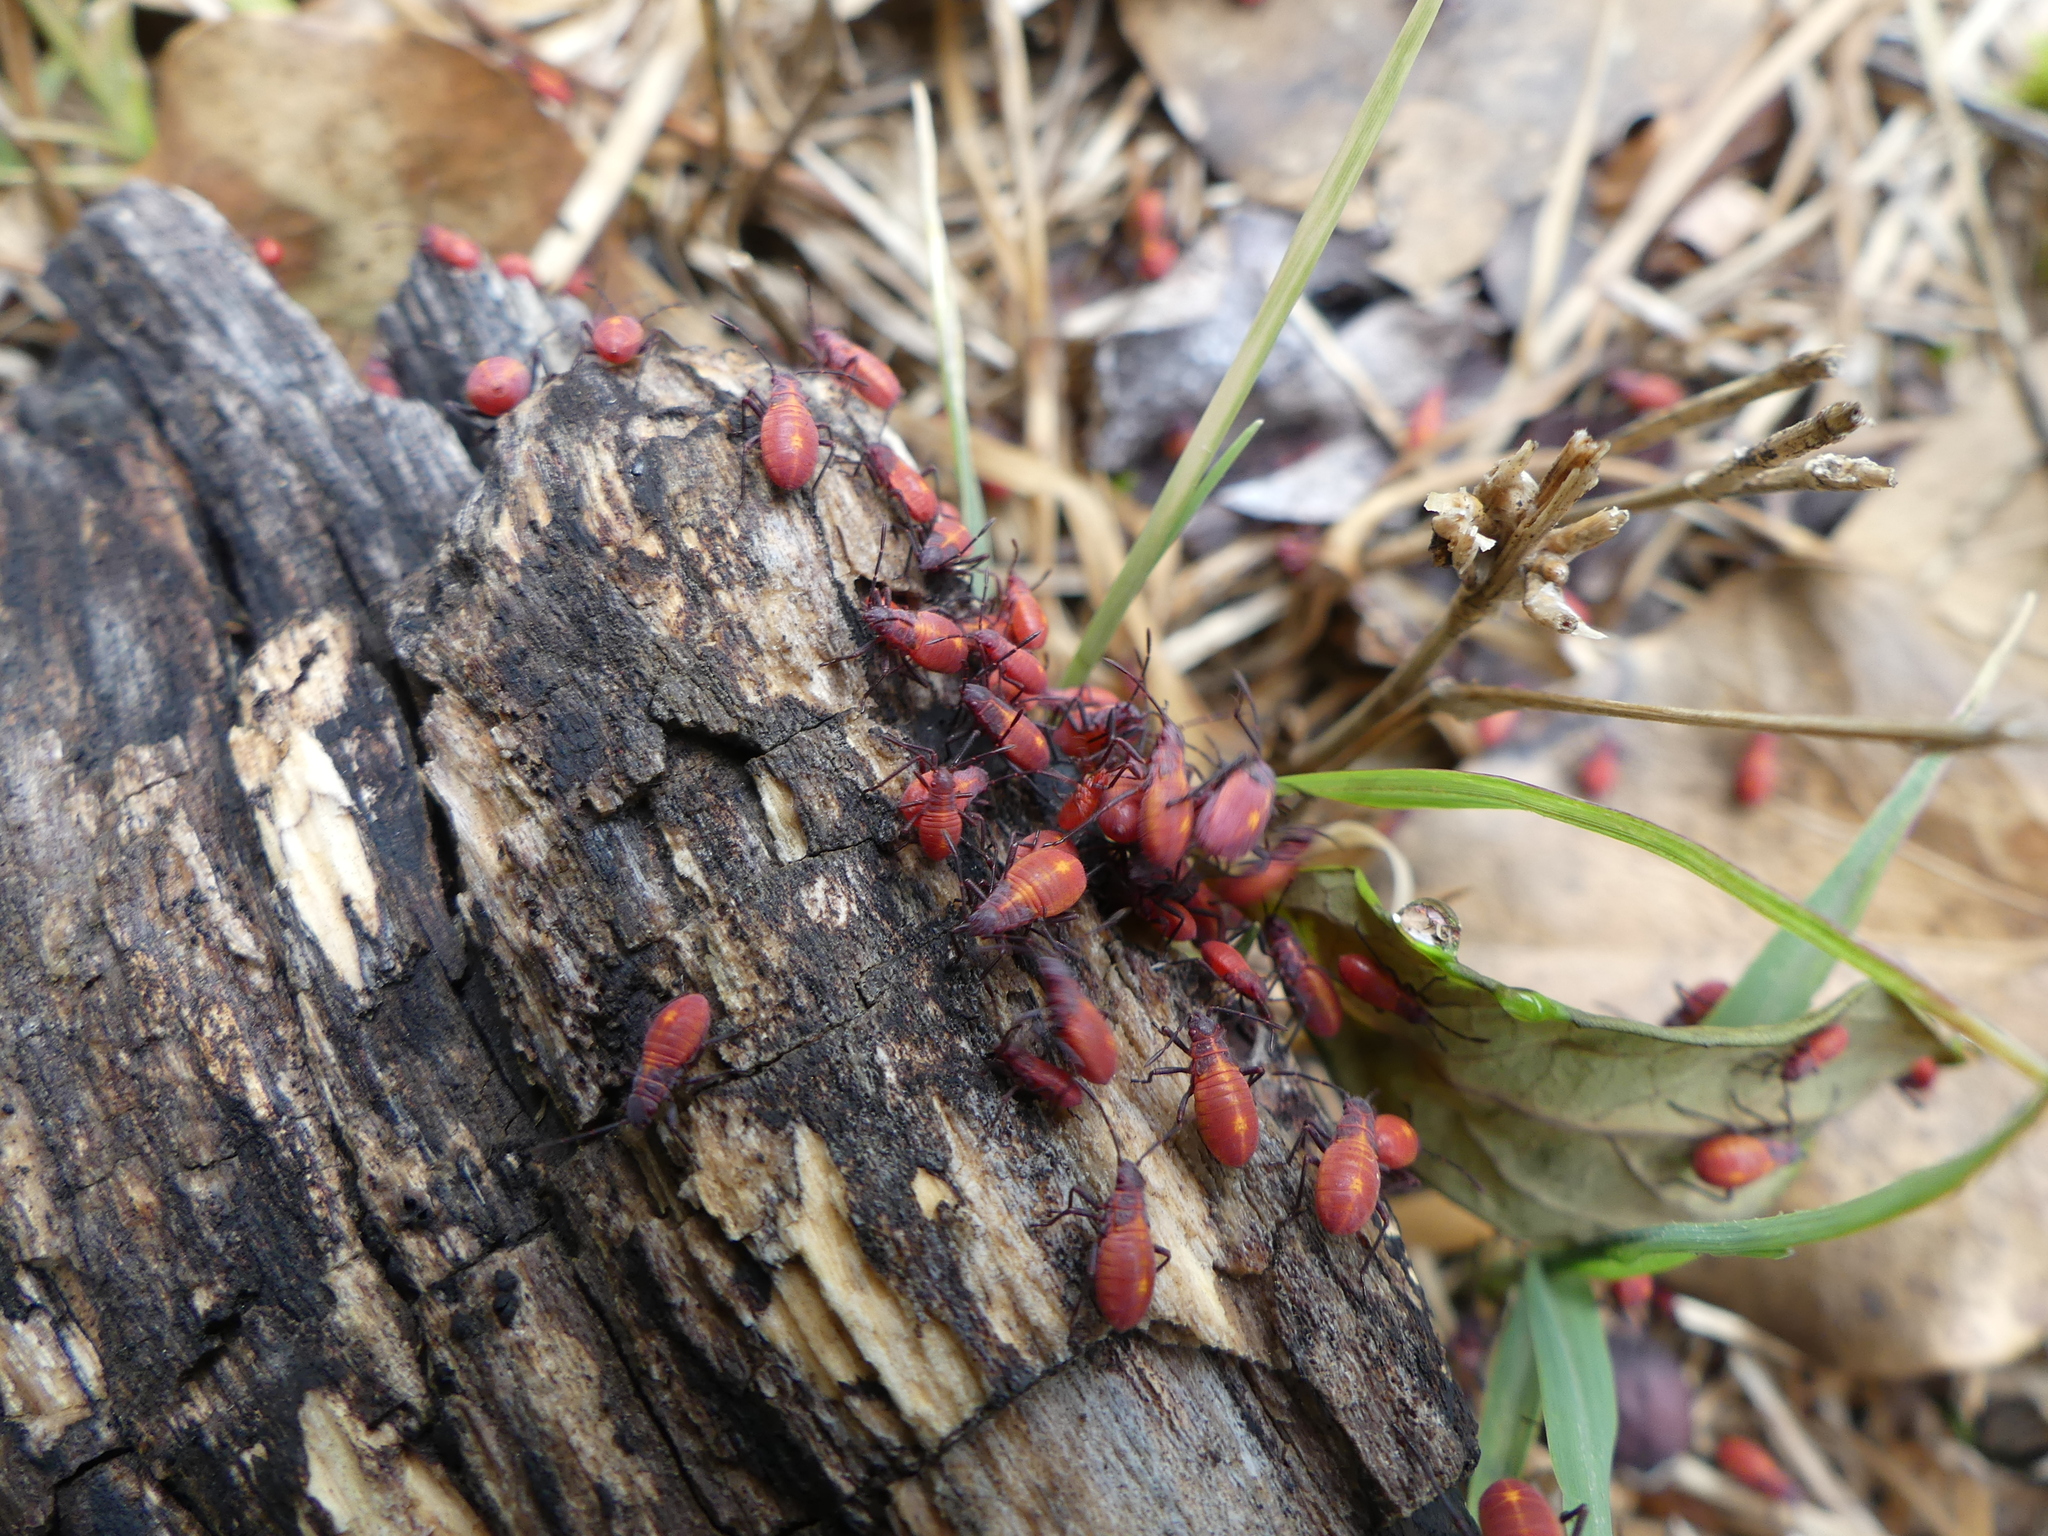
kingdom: Animalia
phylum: Arthropoda
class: Insecta
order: Hemiptera
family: Rhopalidae
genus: Boisea
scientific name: Boisea trivittata
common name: Boxelder bug
